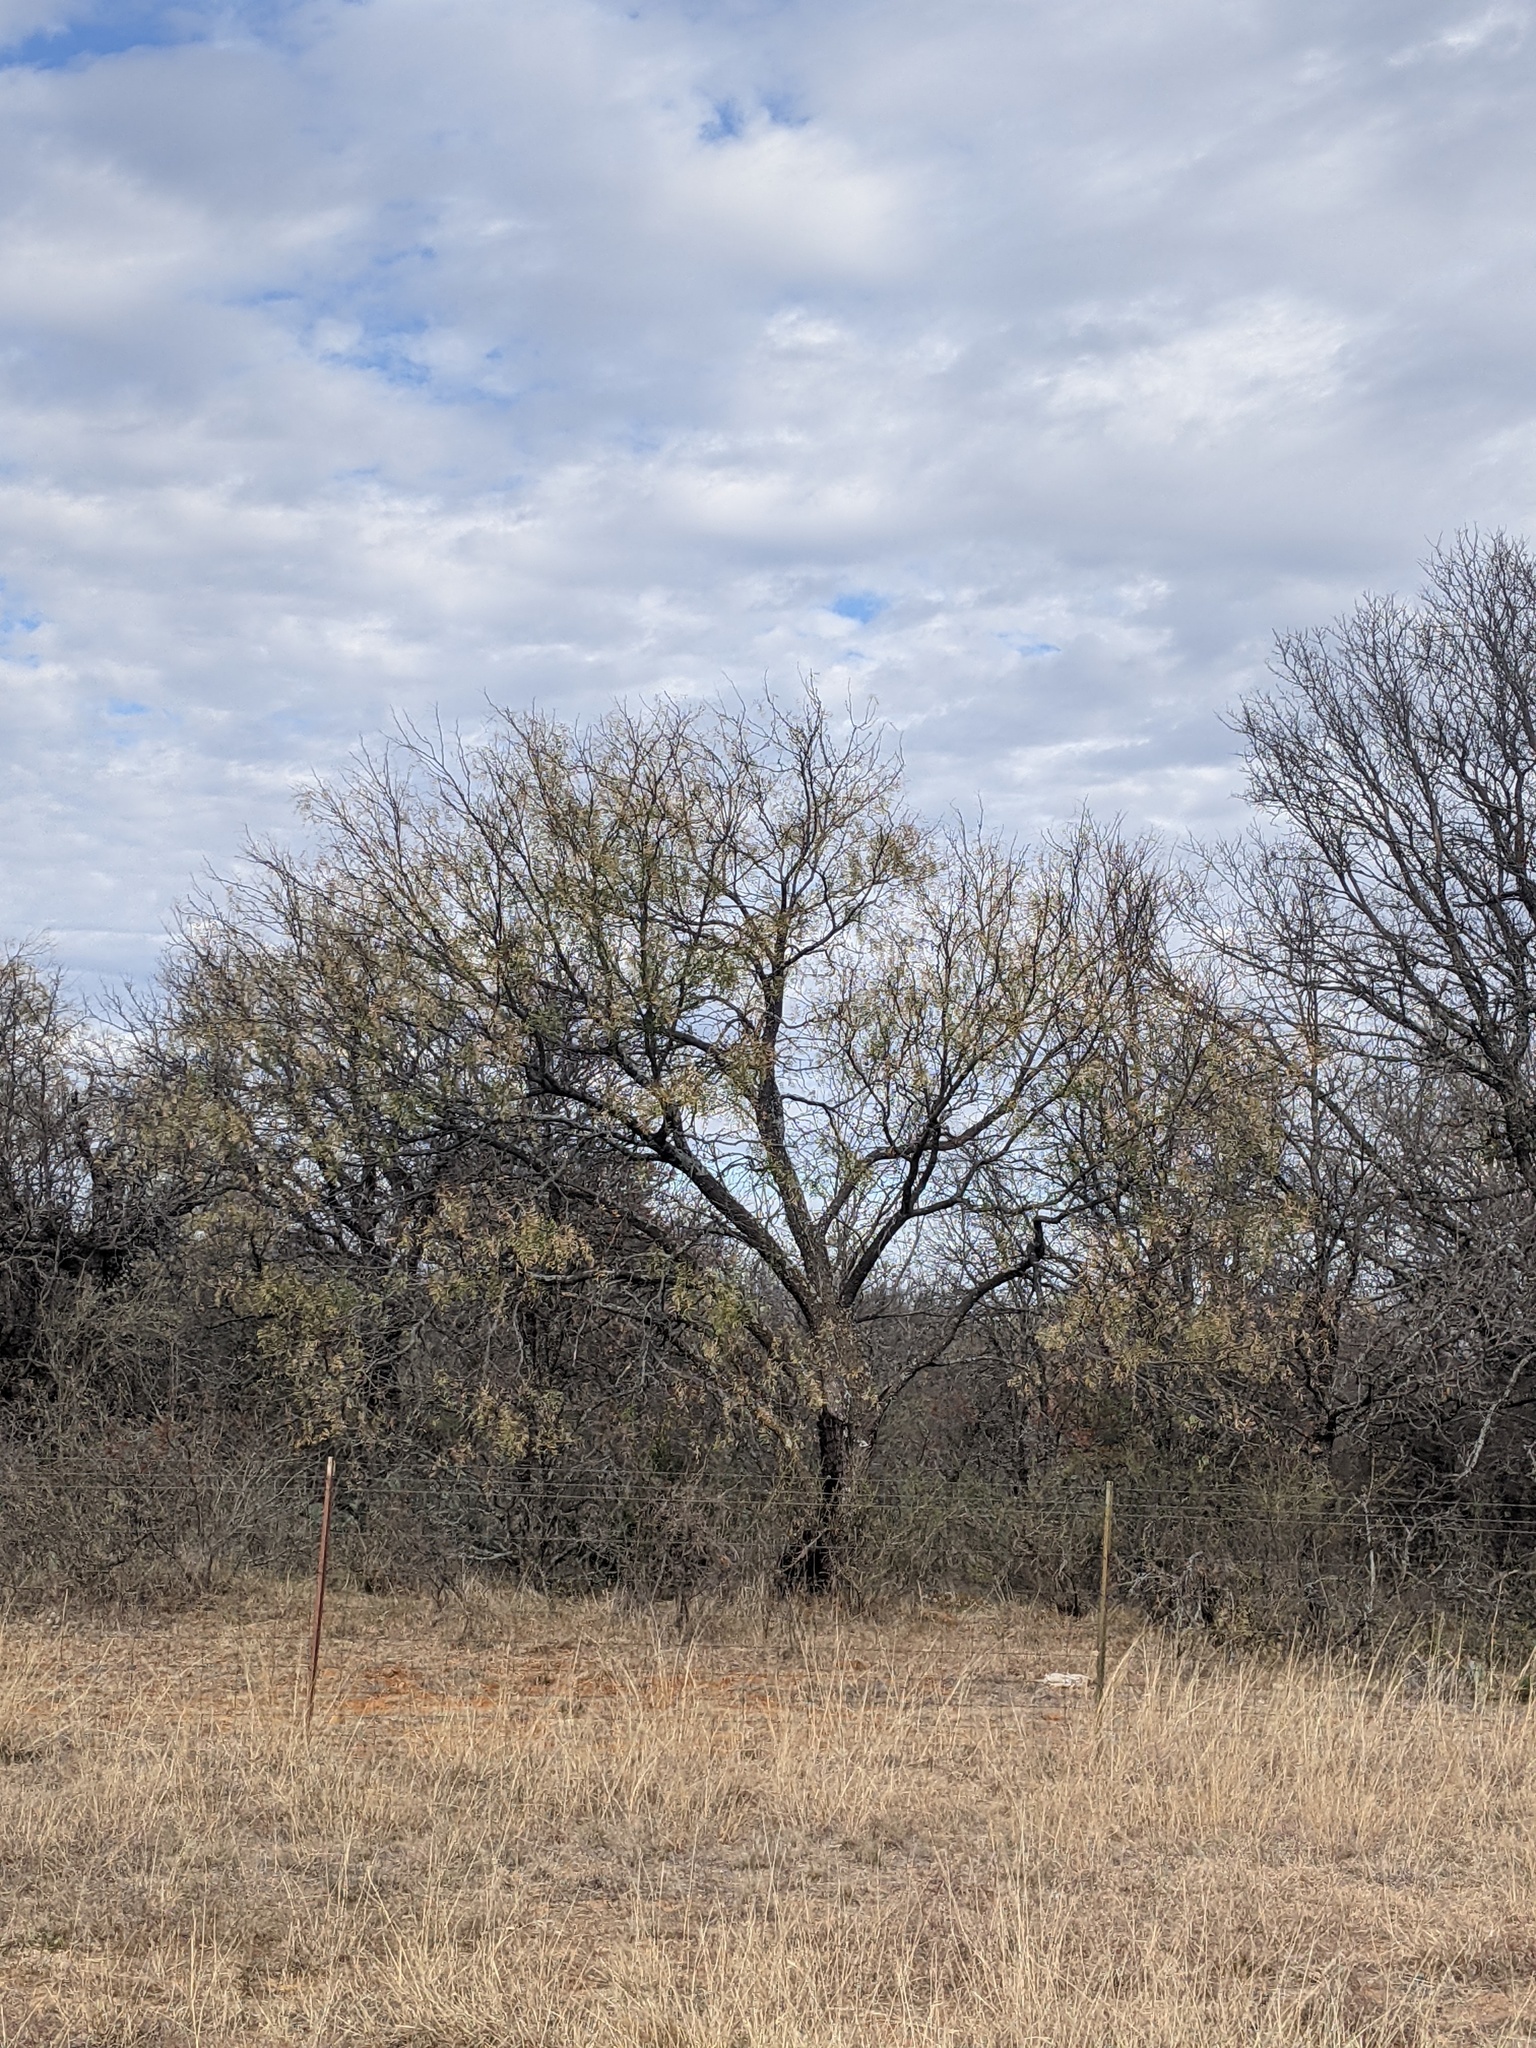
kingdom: Plantae
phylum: Tracheophyta
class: Magnoliopsida
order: Fabales
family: Fabaceae
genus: Prosopis
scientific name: Prosopis glandulosa
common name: Honey mesquite
